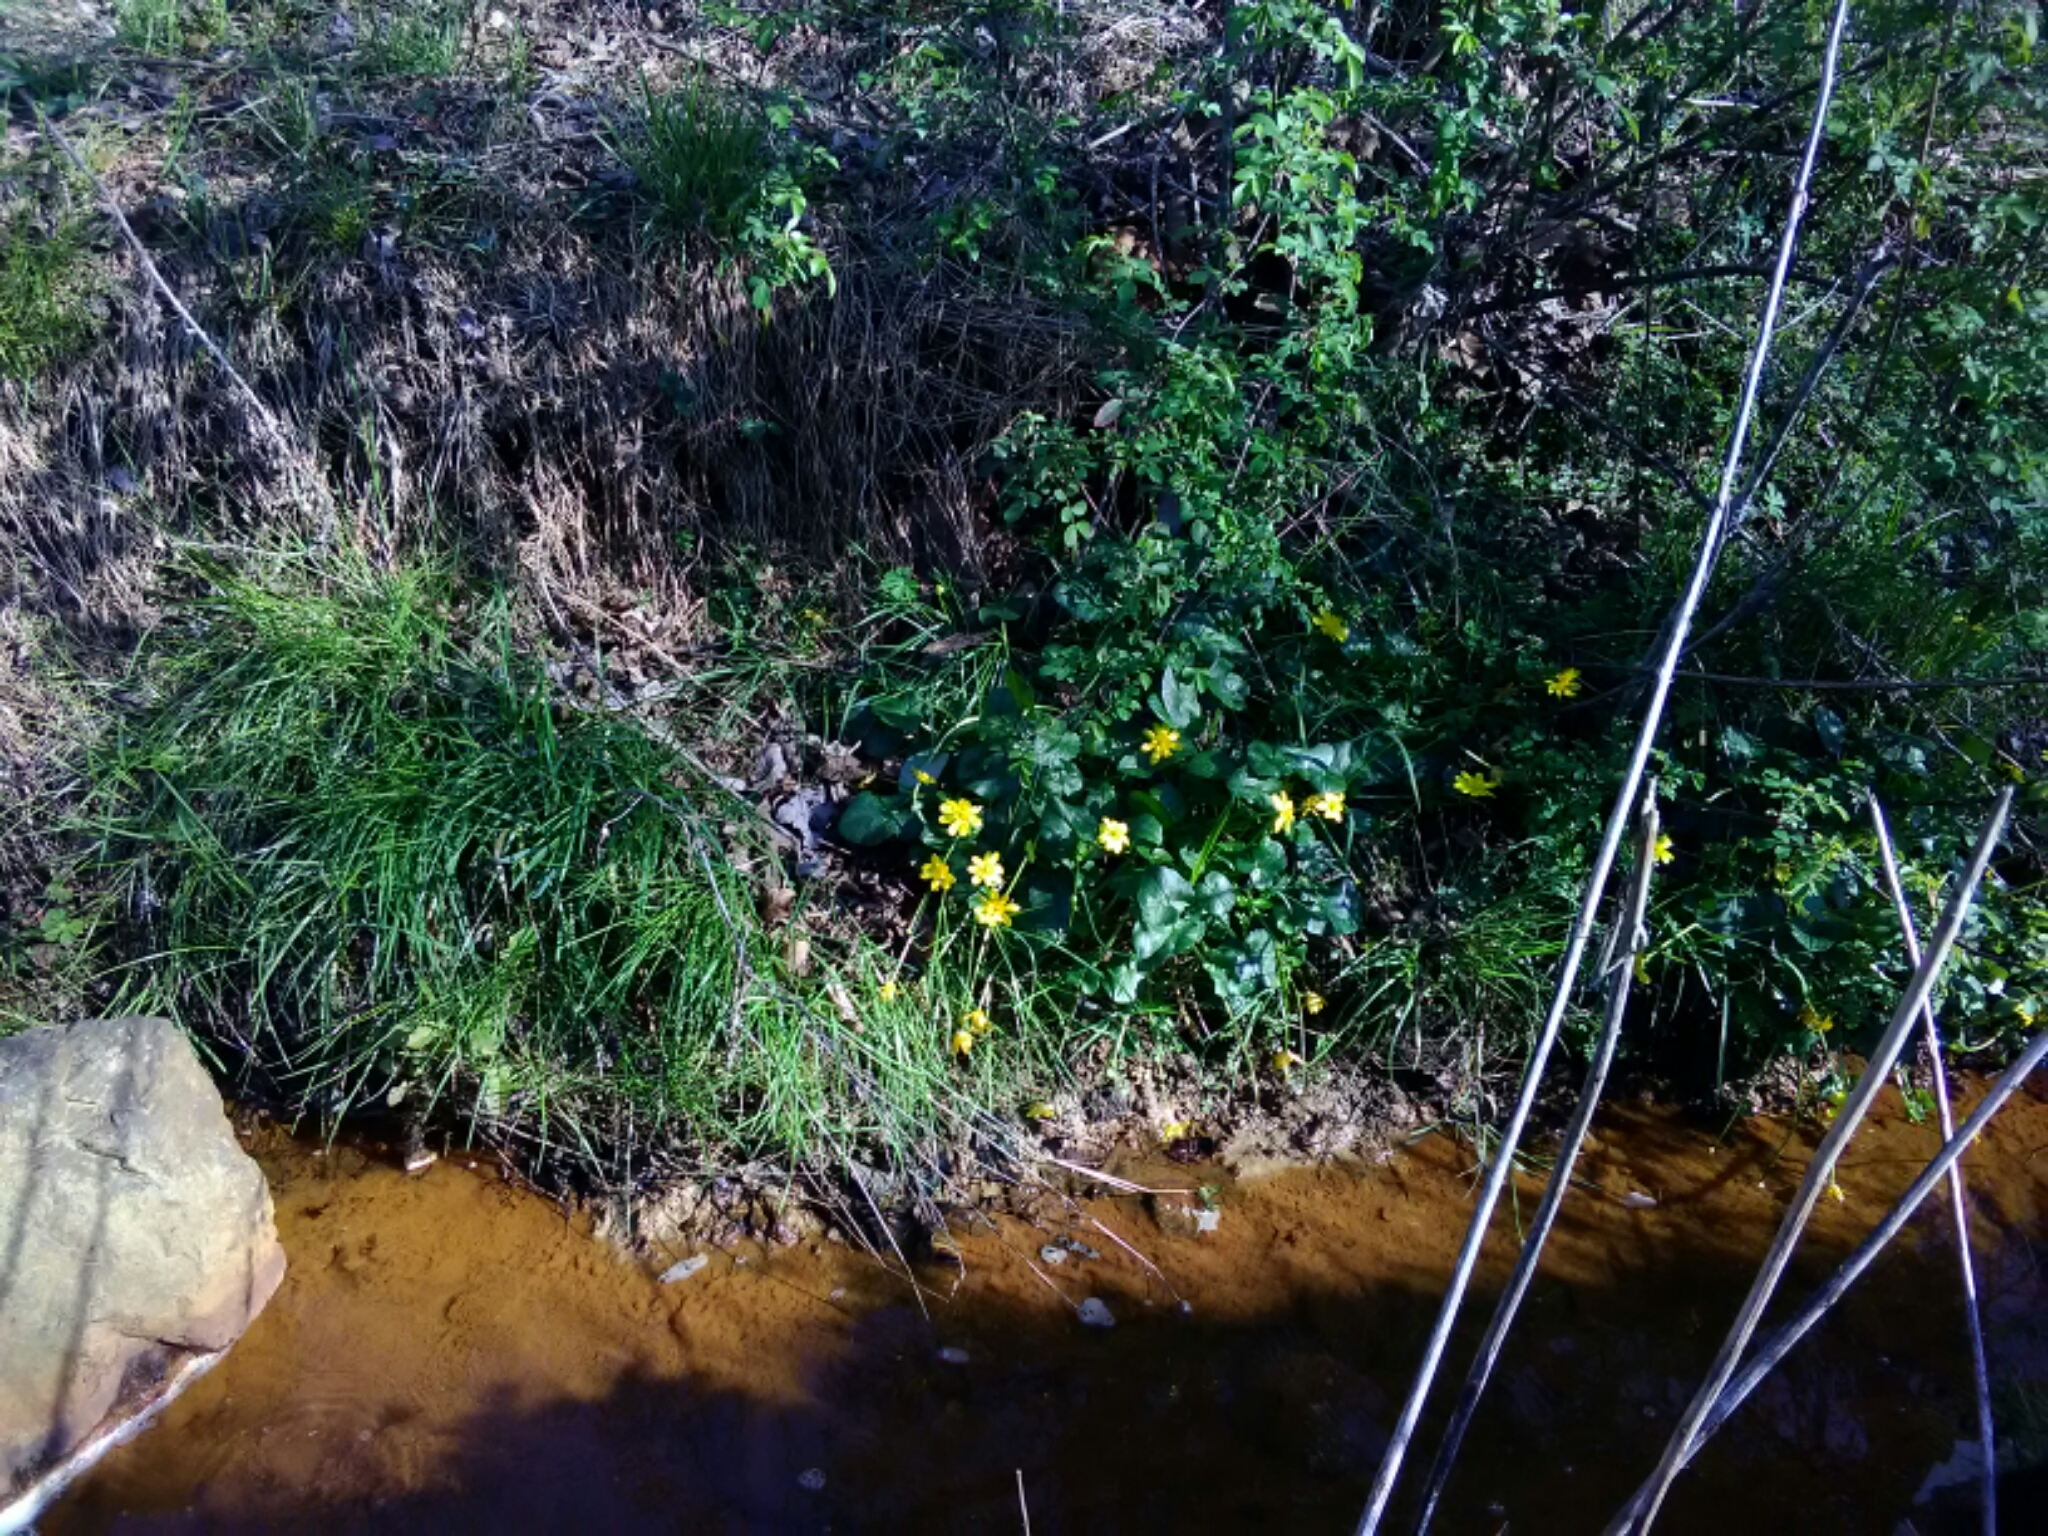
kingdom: Plantae
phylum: Tracheophyta
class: Magnoliopsida
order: Ranunculales
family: Ranunculaceae
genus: Ficaria
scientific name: Ficaria verna
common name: Lesser celandine
